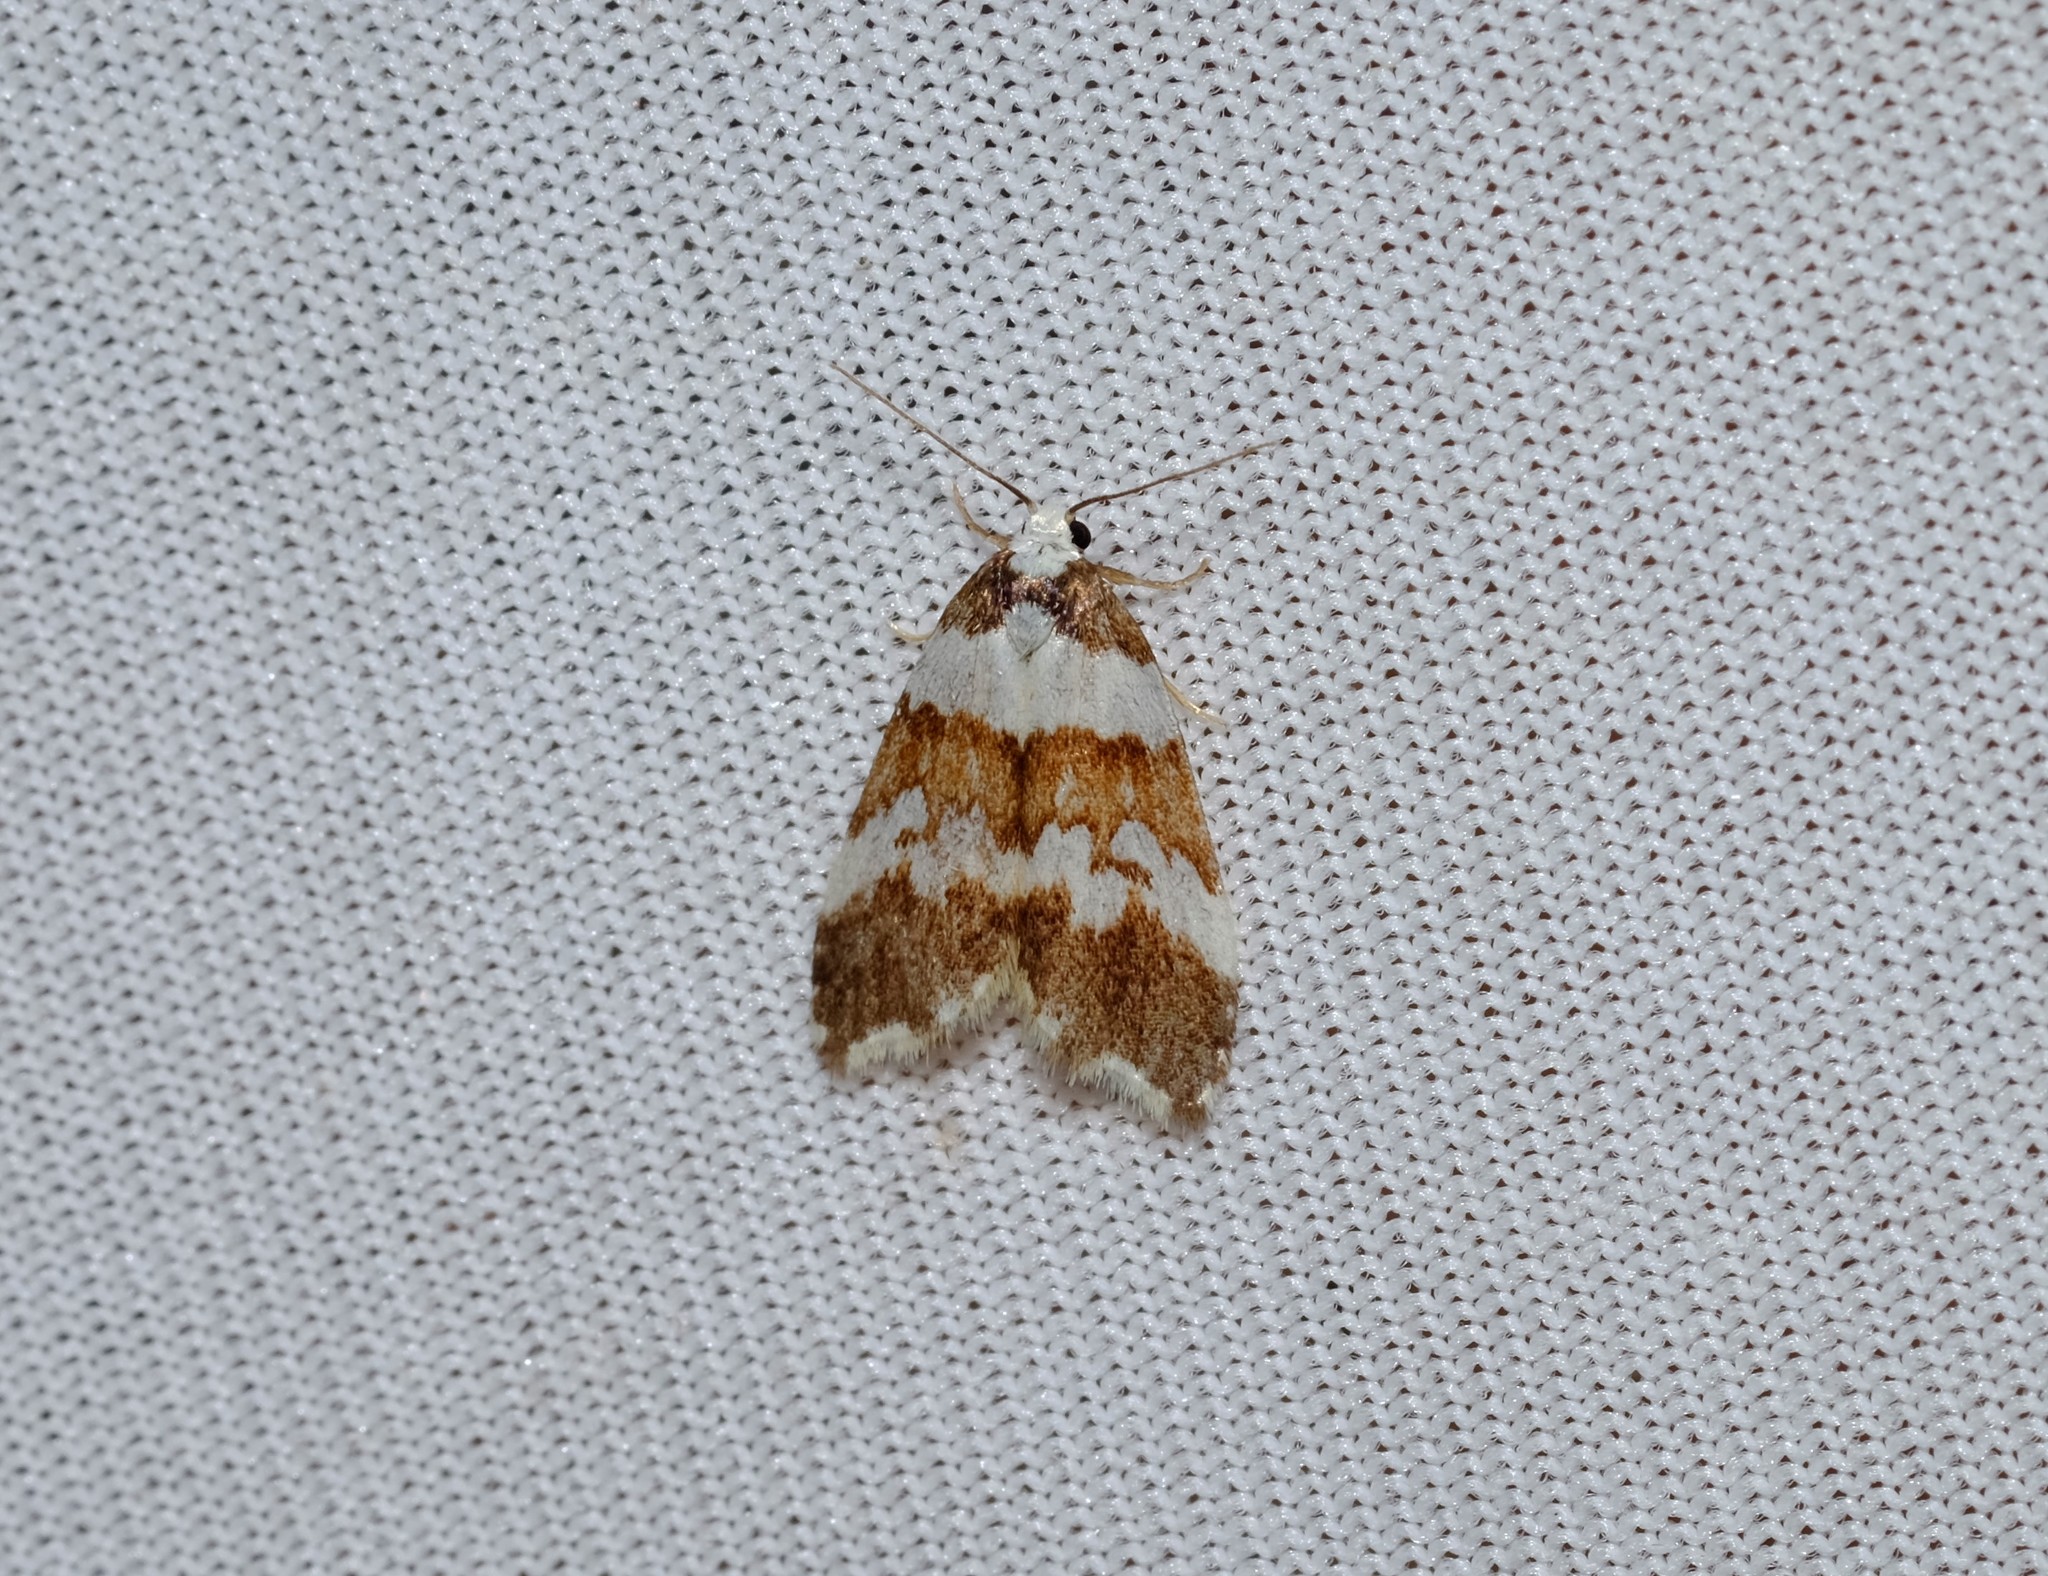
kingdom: Animalia
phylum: Arthropoda
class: Insecta
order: Lepidoptera
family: Erebidae
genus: Halone
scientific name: Halone sejuncta
